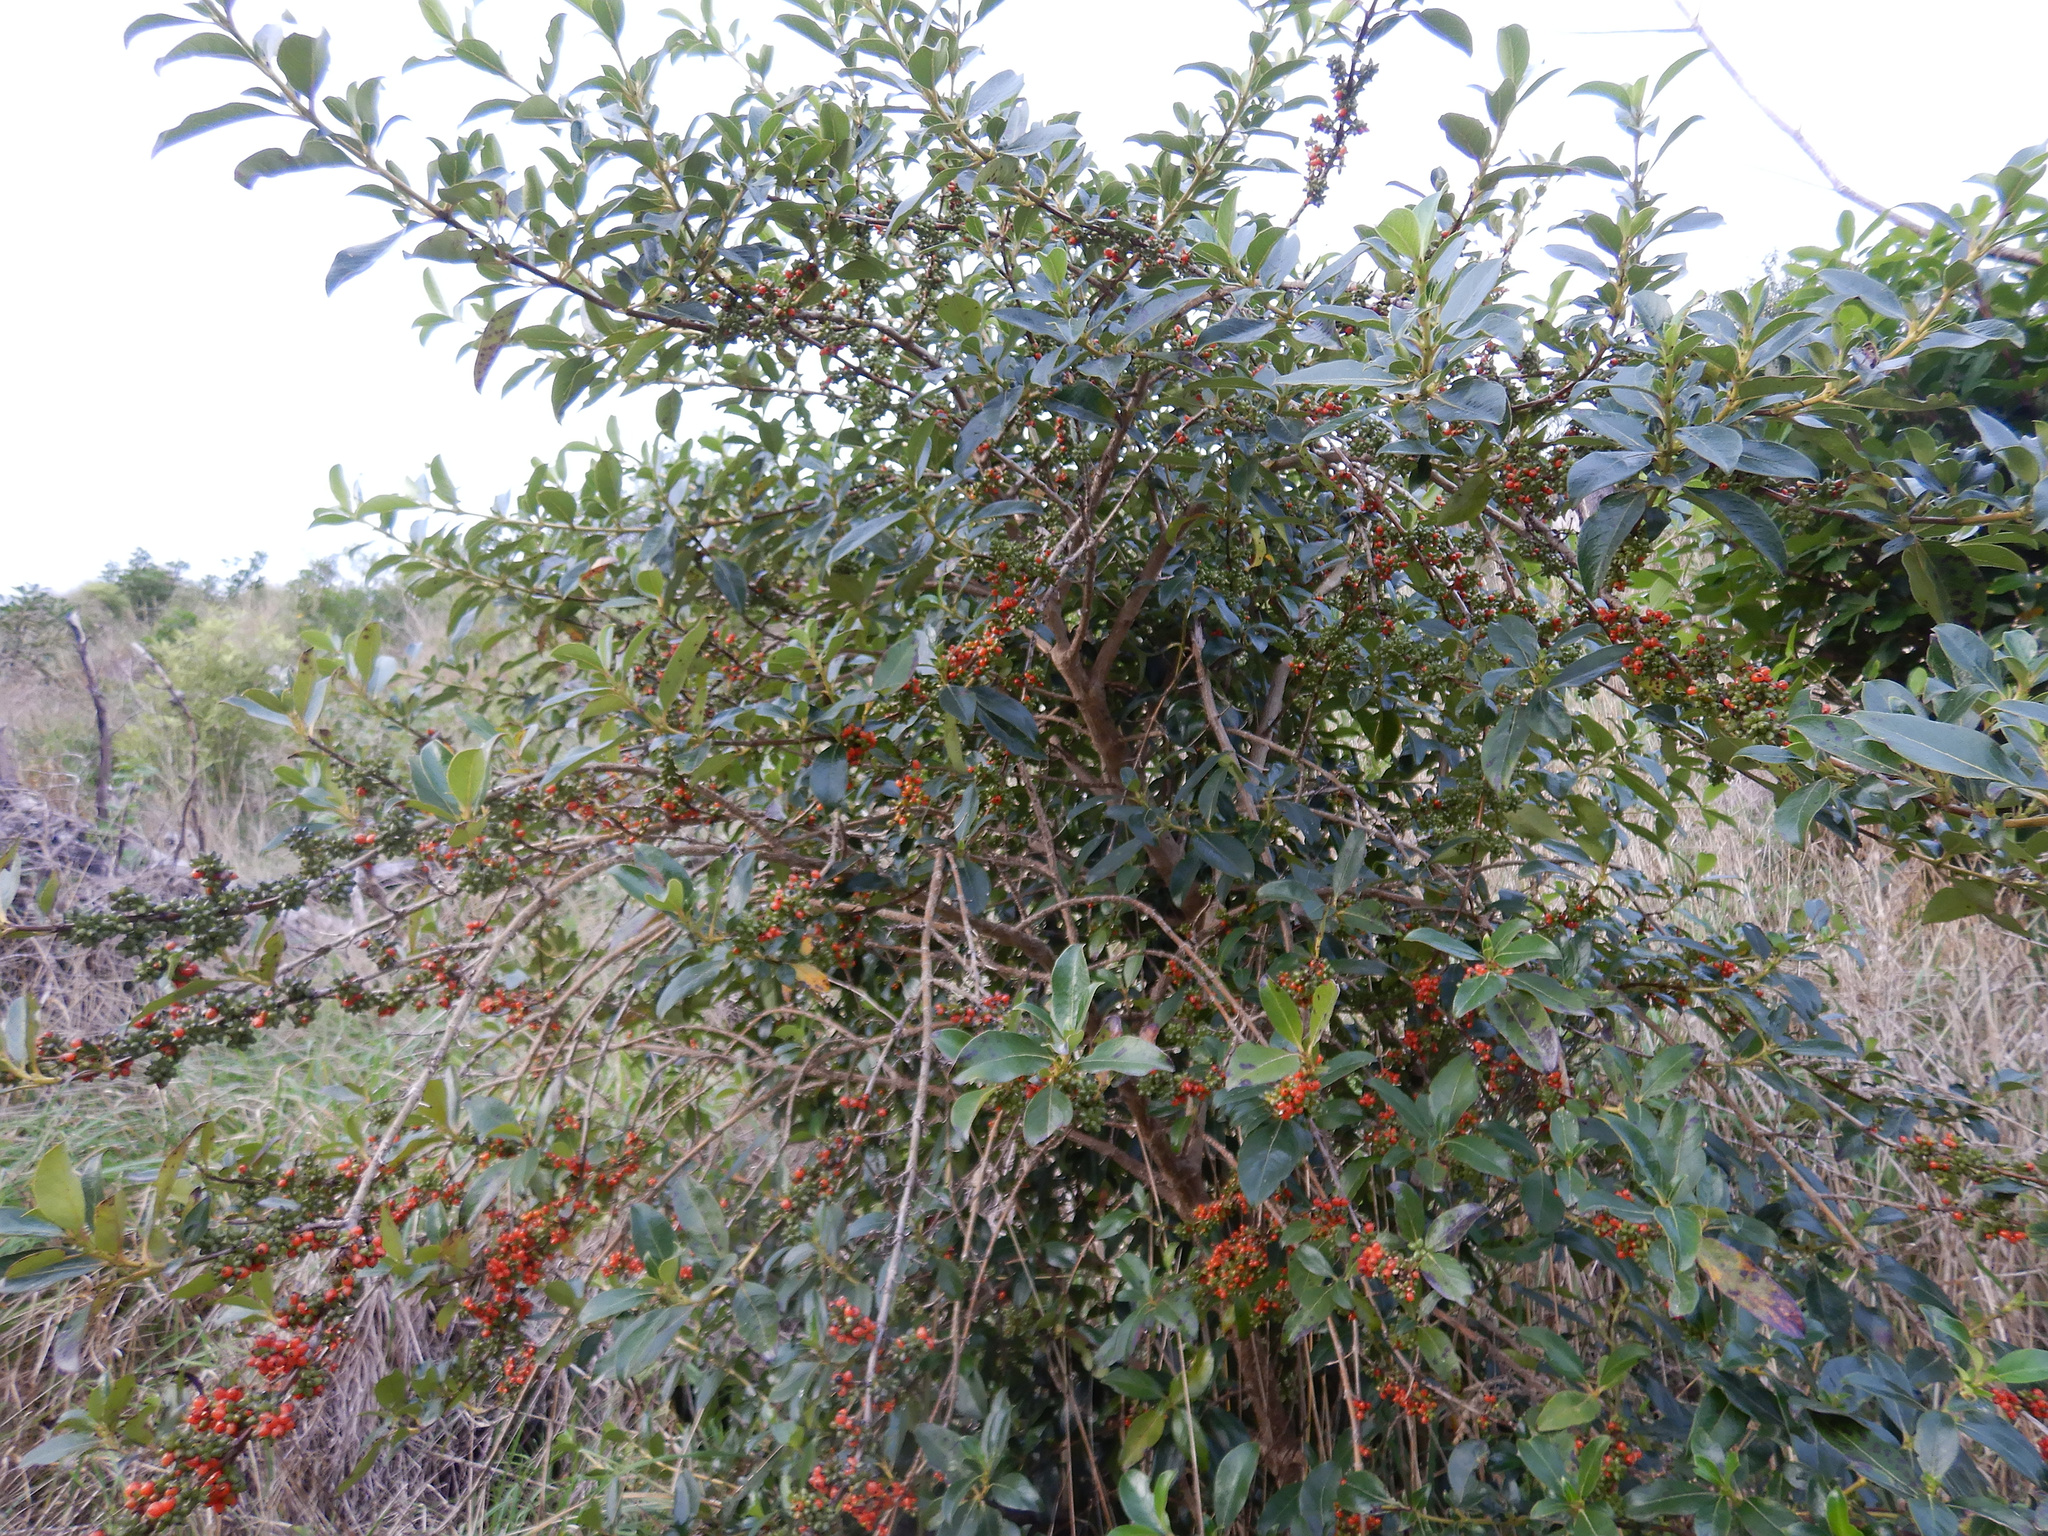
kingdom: Plantae
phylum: Tracheophyta
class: Magnoliopsida
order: Gentianales
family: Rubiaceae
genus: Coprosma
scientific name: Coprosma robusta
